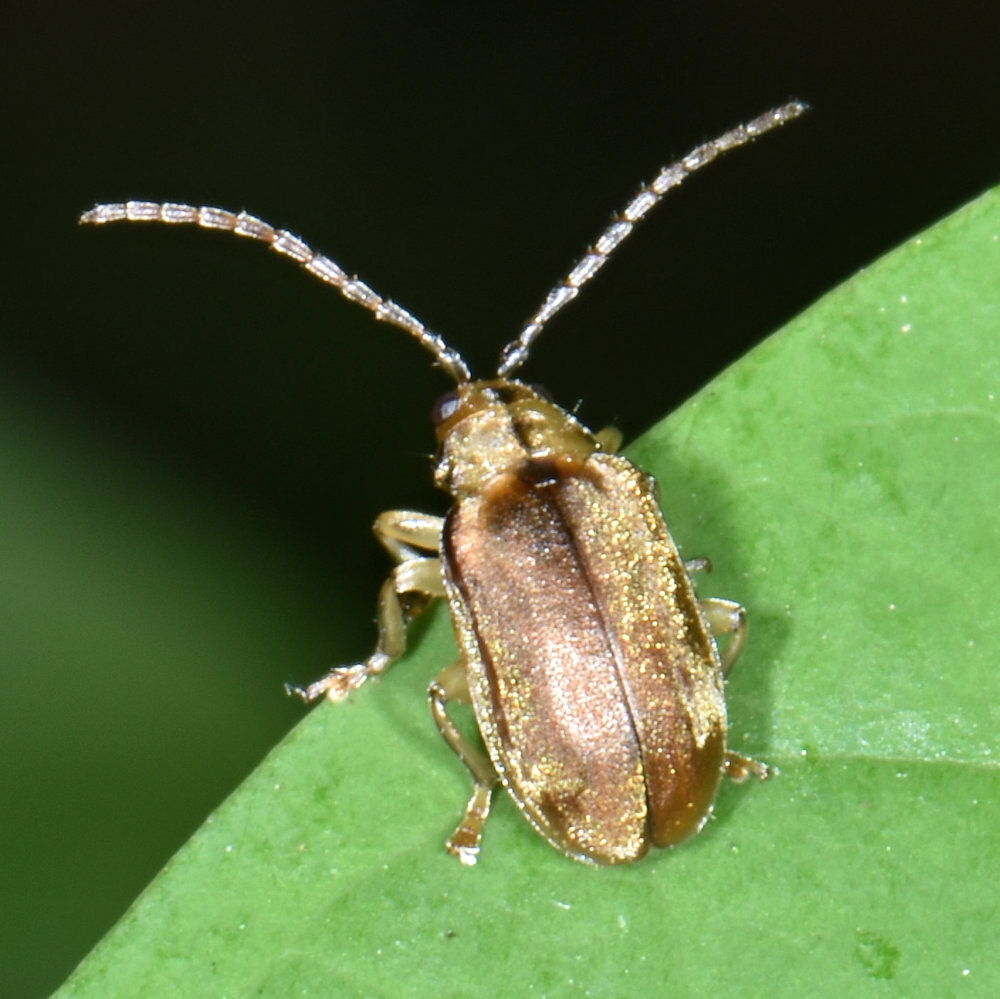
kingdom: Animalia
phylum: Arthropoda
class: Insecta
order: Coleoptera
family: Chrysomelidae
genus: Pyrrhalta
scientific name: Pyrrhalta viburni
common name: Guelder-rose leaf beetle
